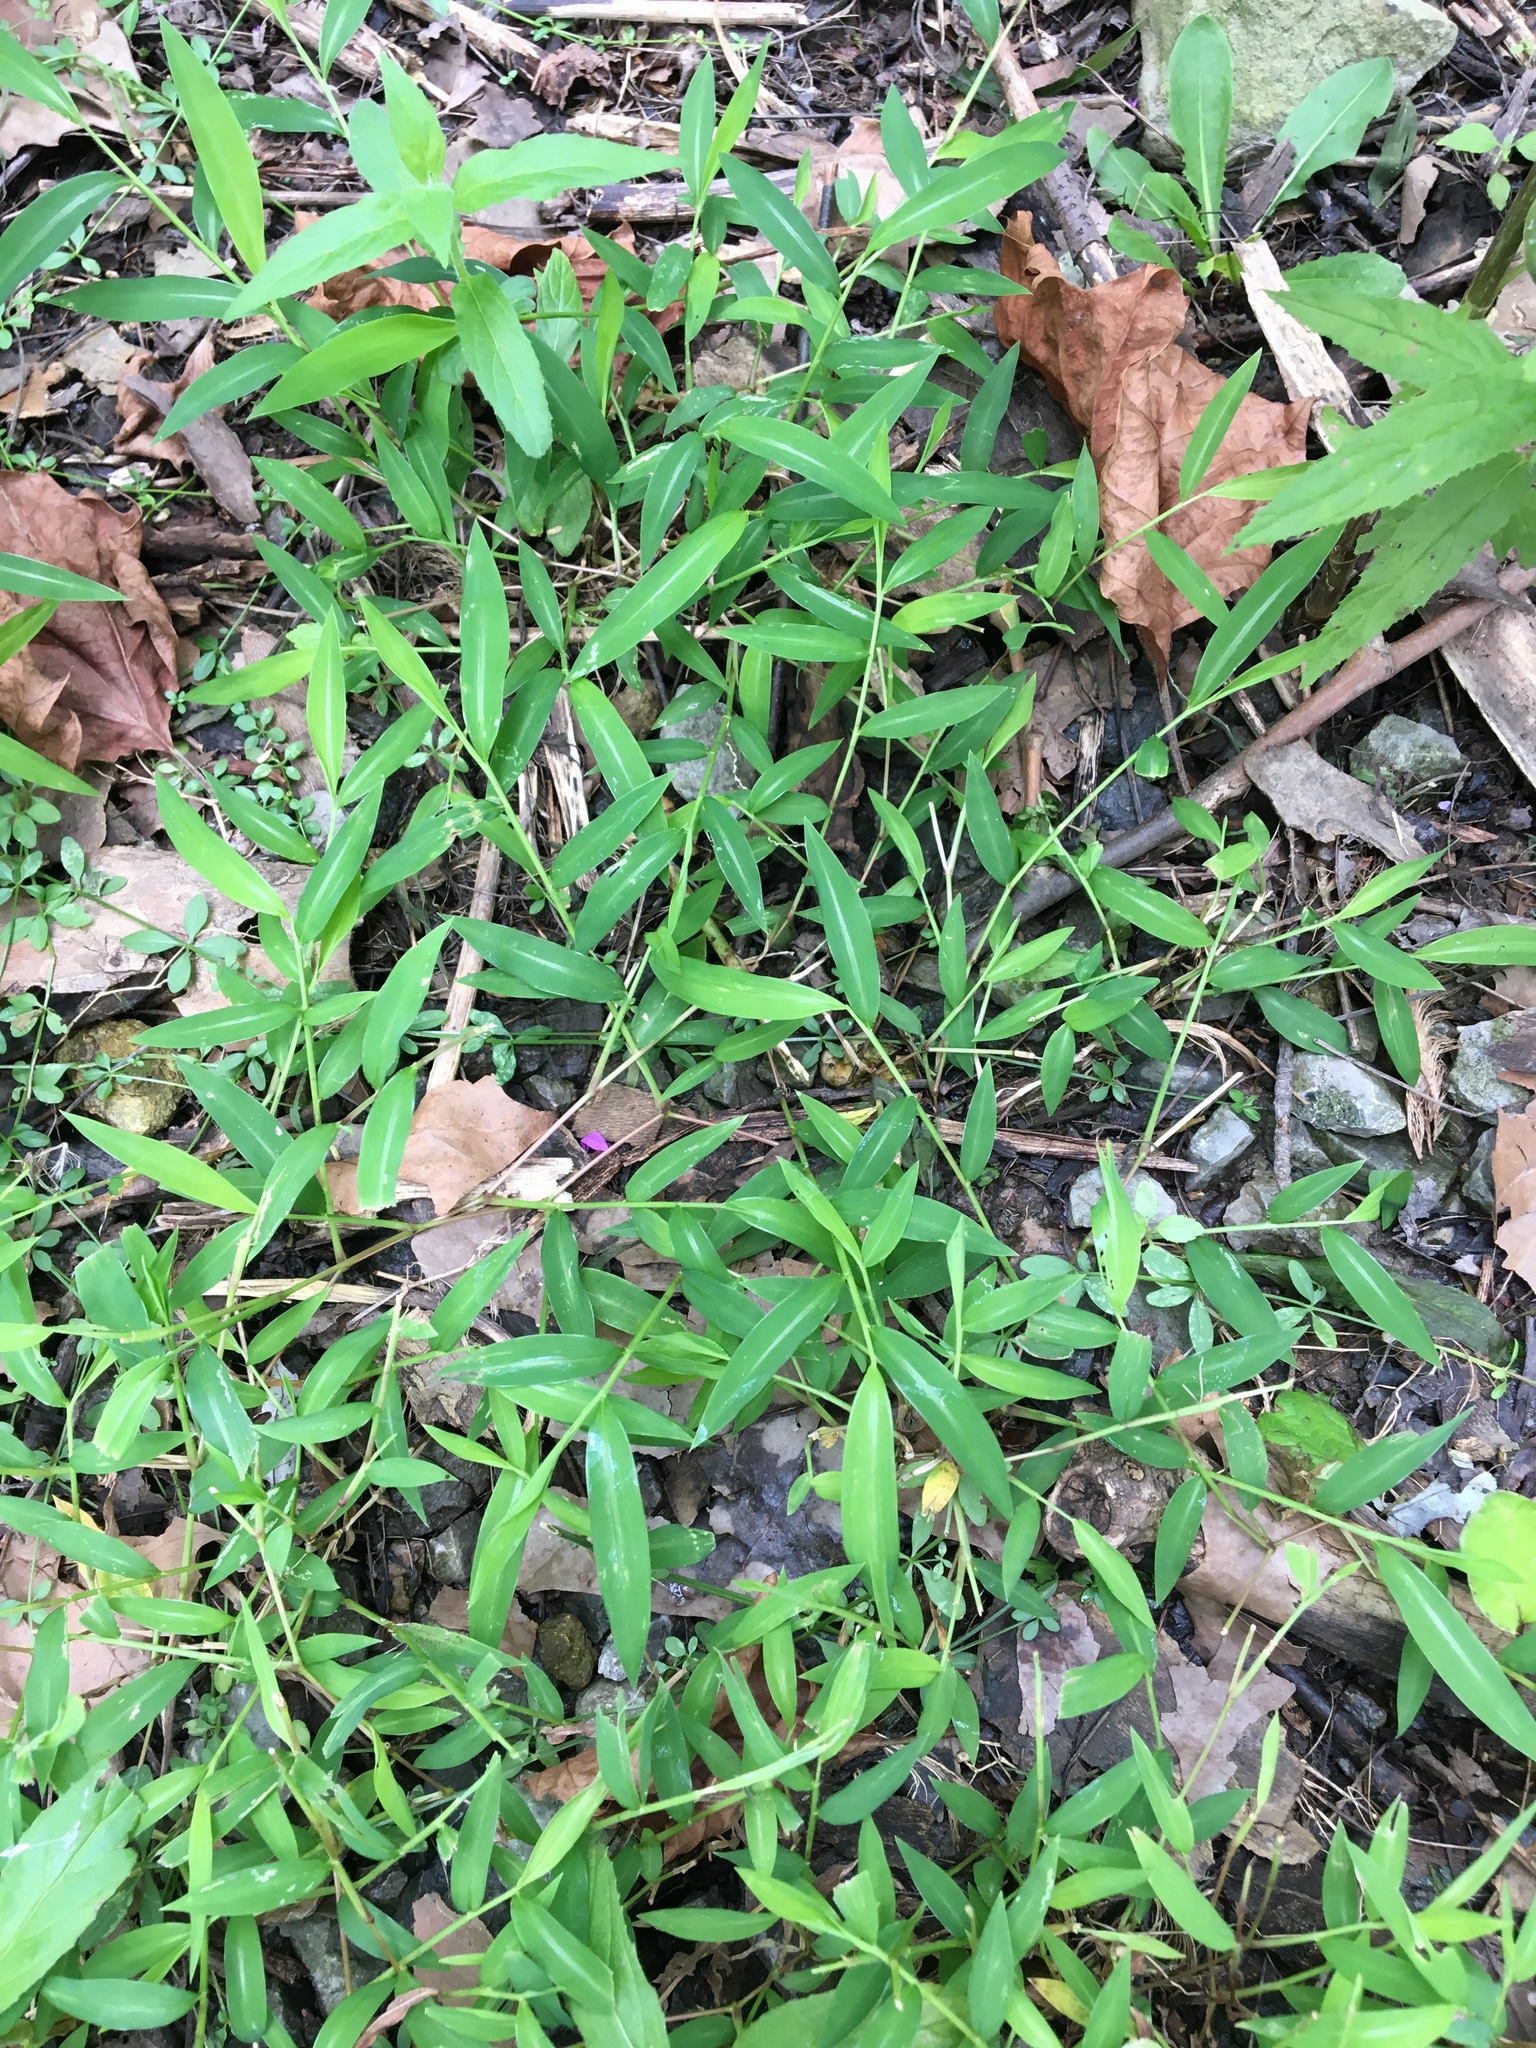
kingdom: Plantae
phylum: Tracheophyta
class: Liliopsida
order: Poales
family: Poaceae
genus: Microstegium
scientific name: Microstegium vimineum
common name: Japanese stiltgrass
